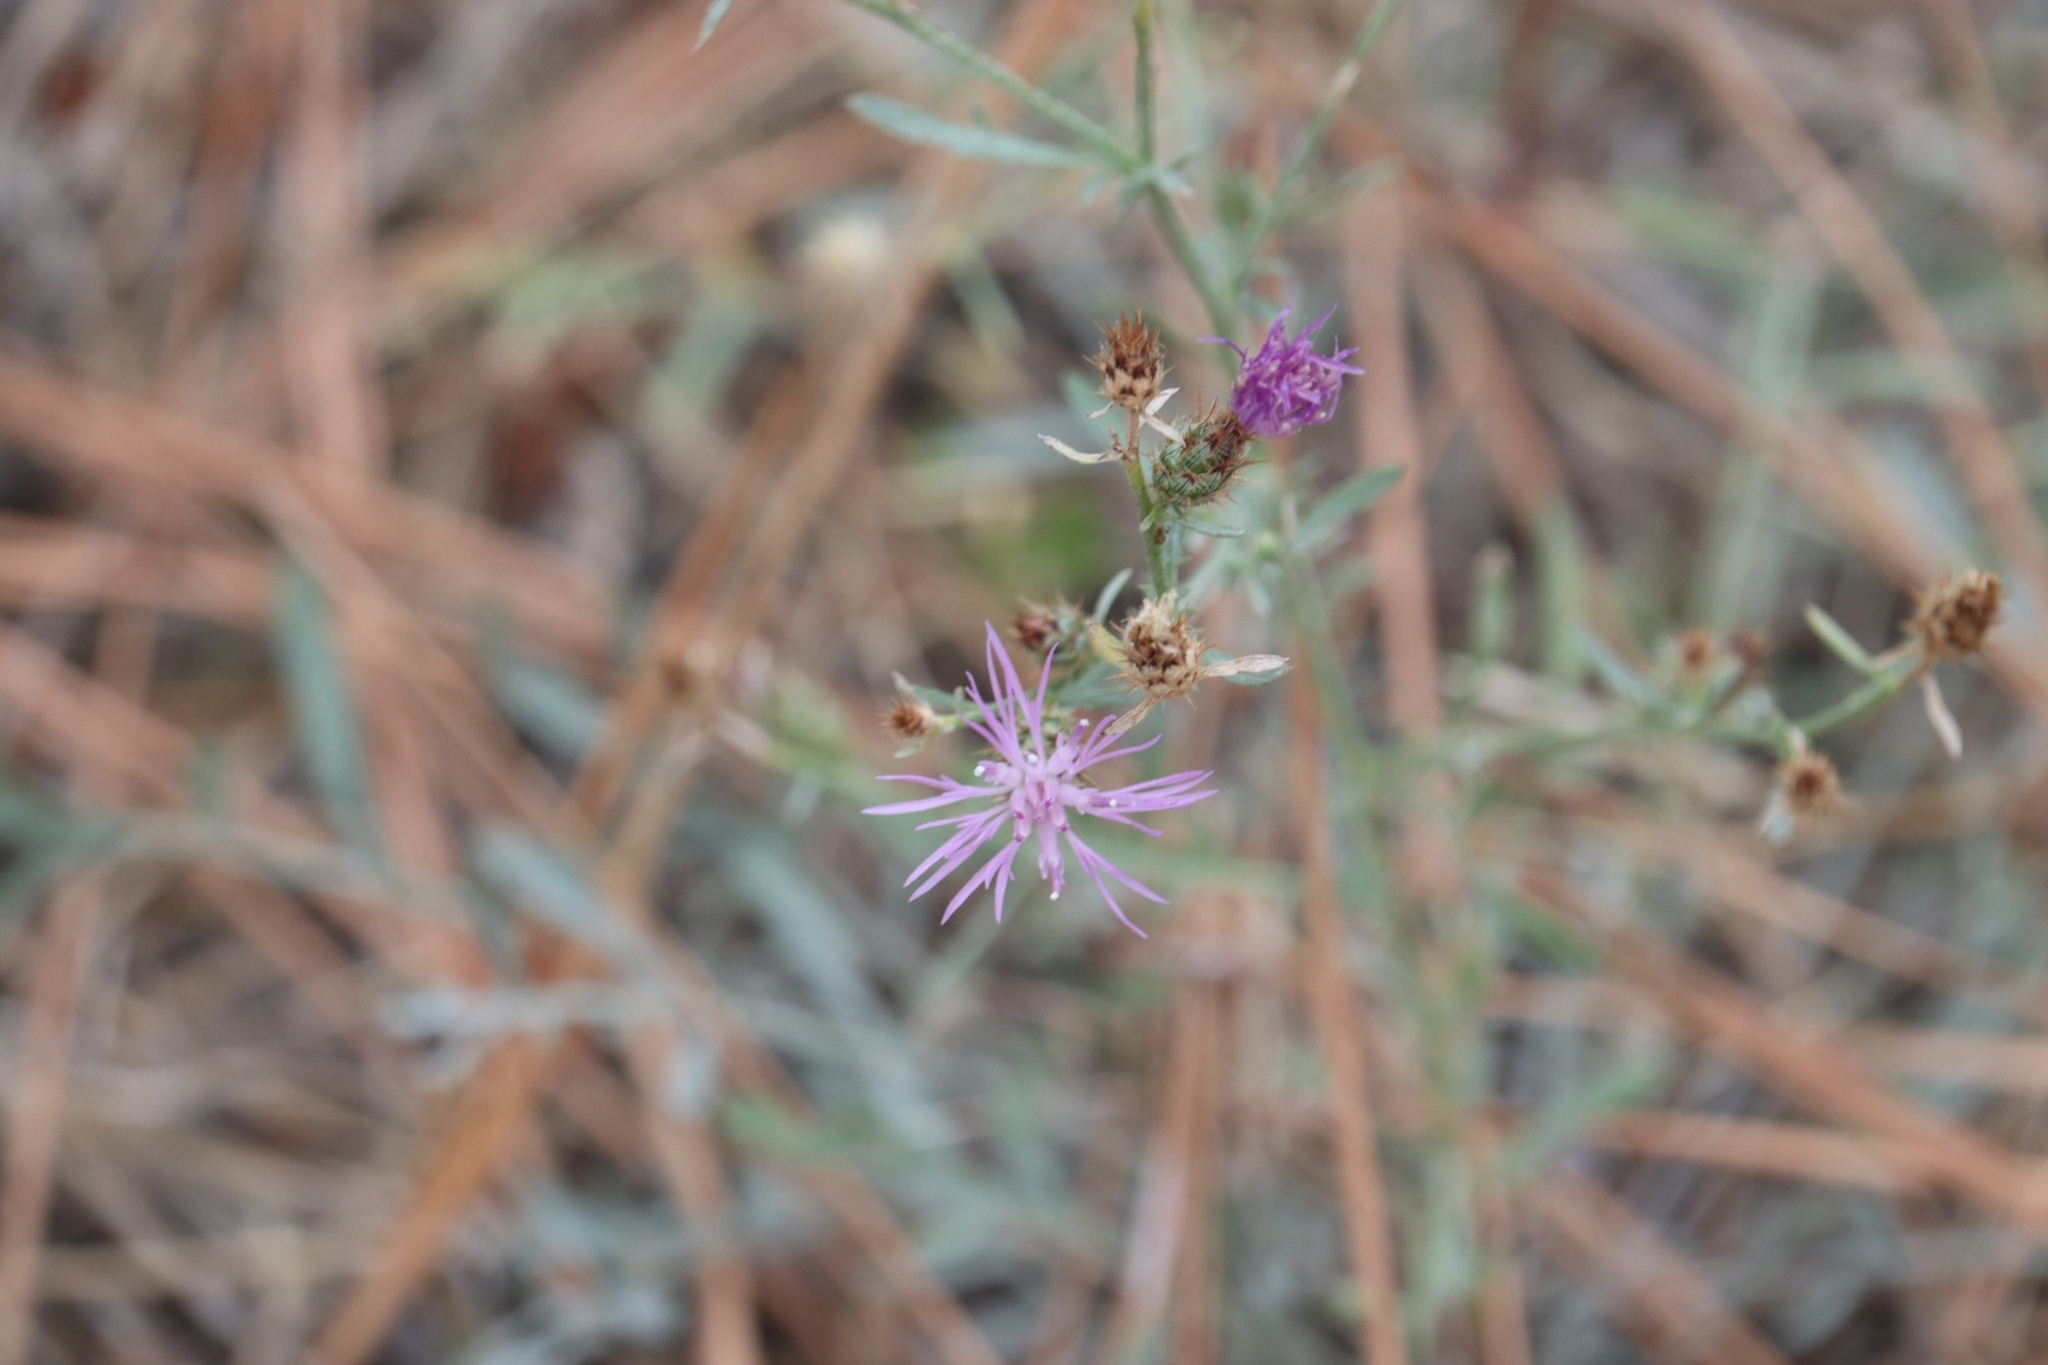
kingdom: Plantae
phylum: Tracheophyta
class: Magnoliopsida
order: Asterales
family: Asteraceae
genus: Centaurea
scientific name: Centaurea stoebe
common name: Spotted knapweed
